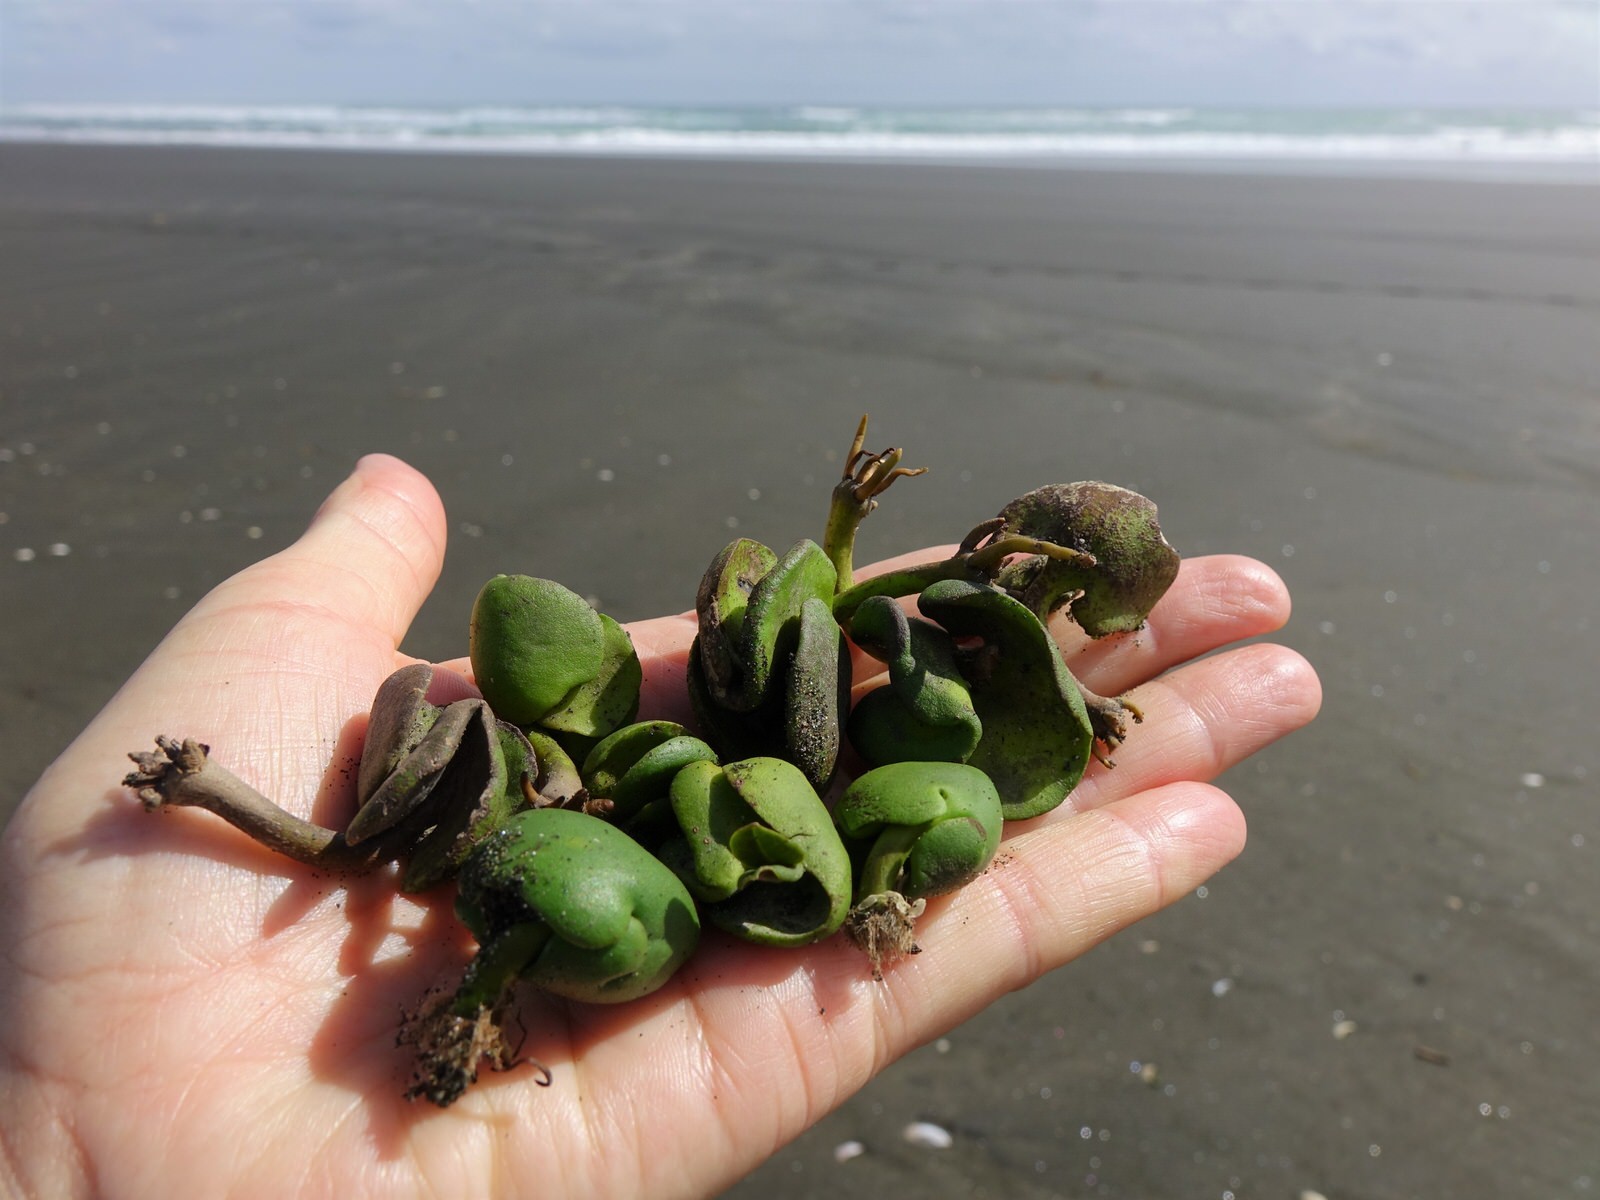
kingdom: Plantae
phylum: Tracheophyta
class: Magnoliopsida
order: Lamiales
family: Acanthaceae
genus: Avicennia
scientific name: Avicennia marina
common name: Gray mangrove
